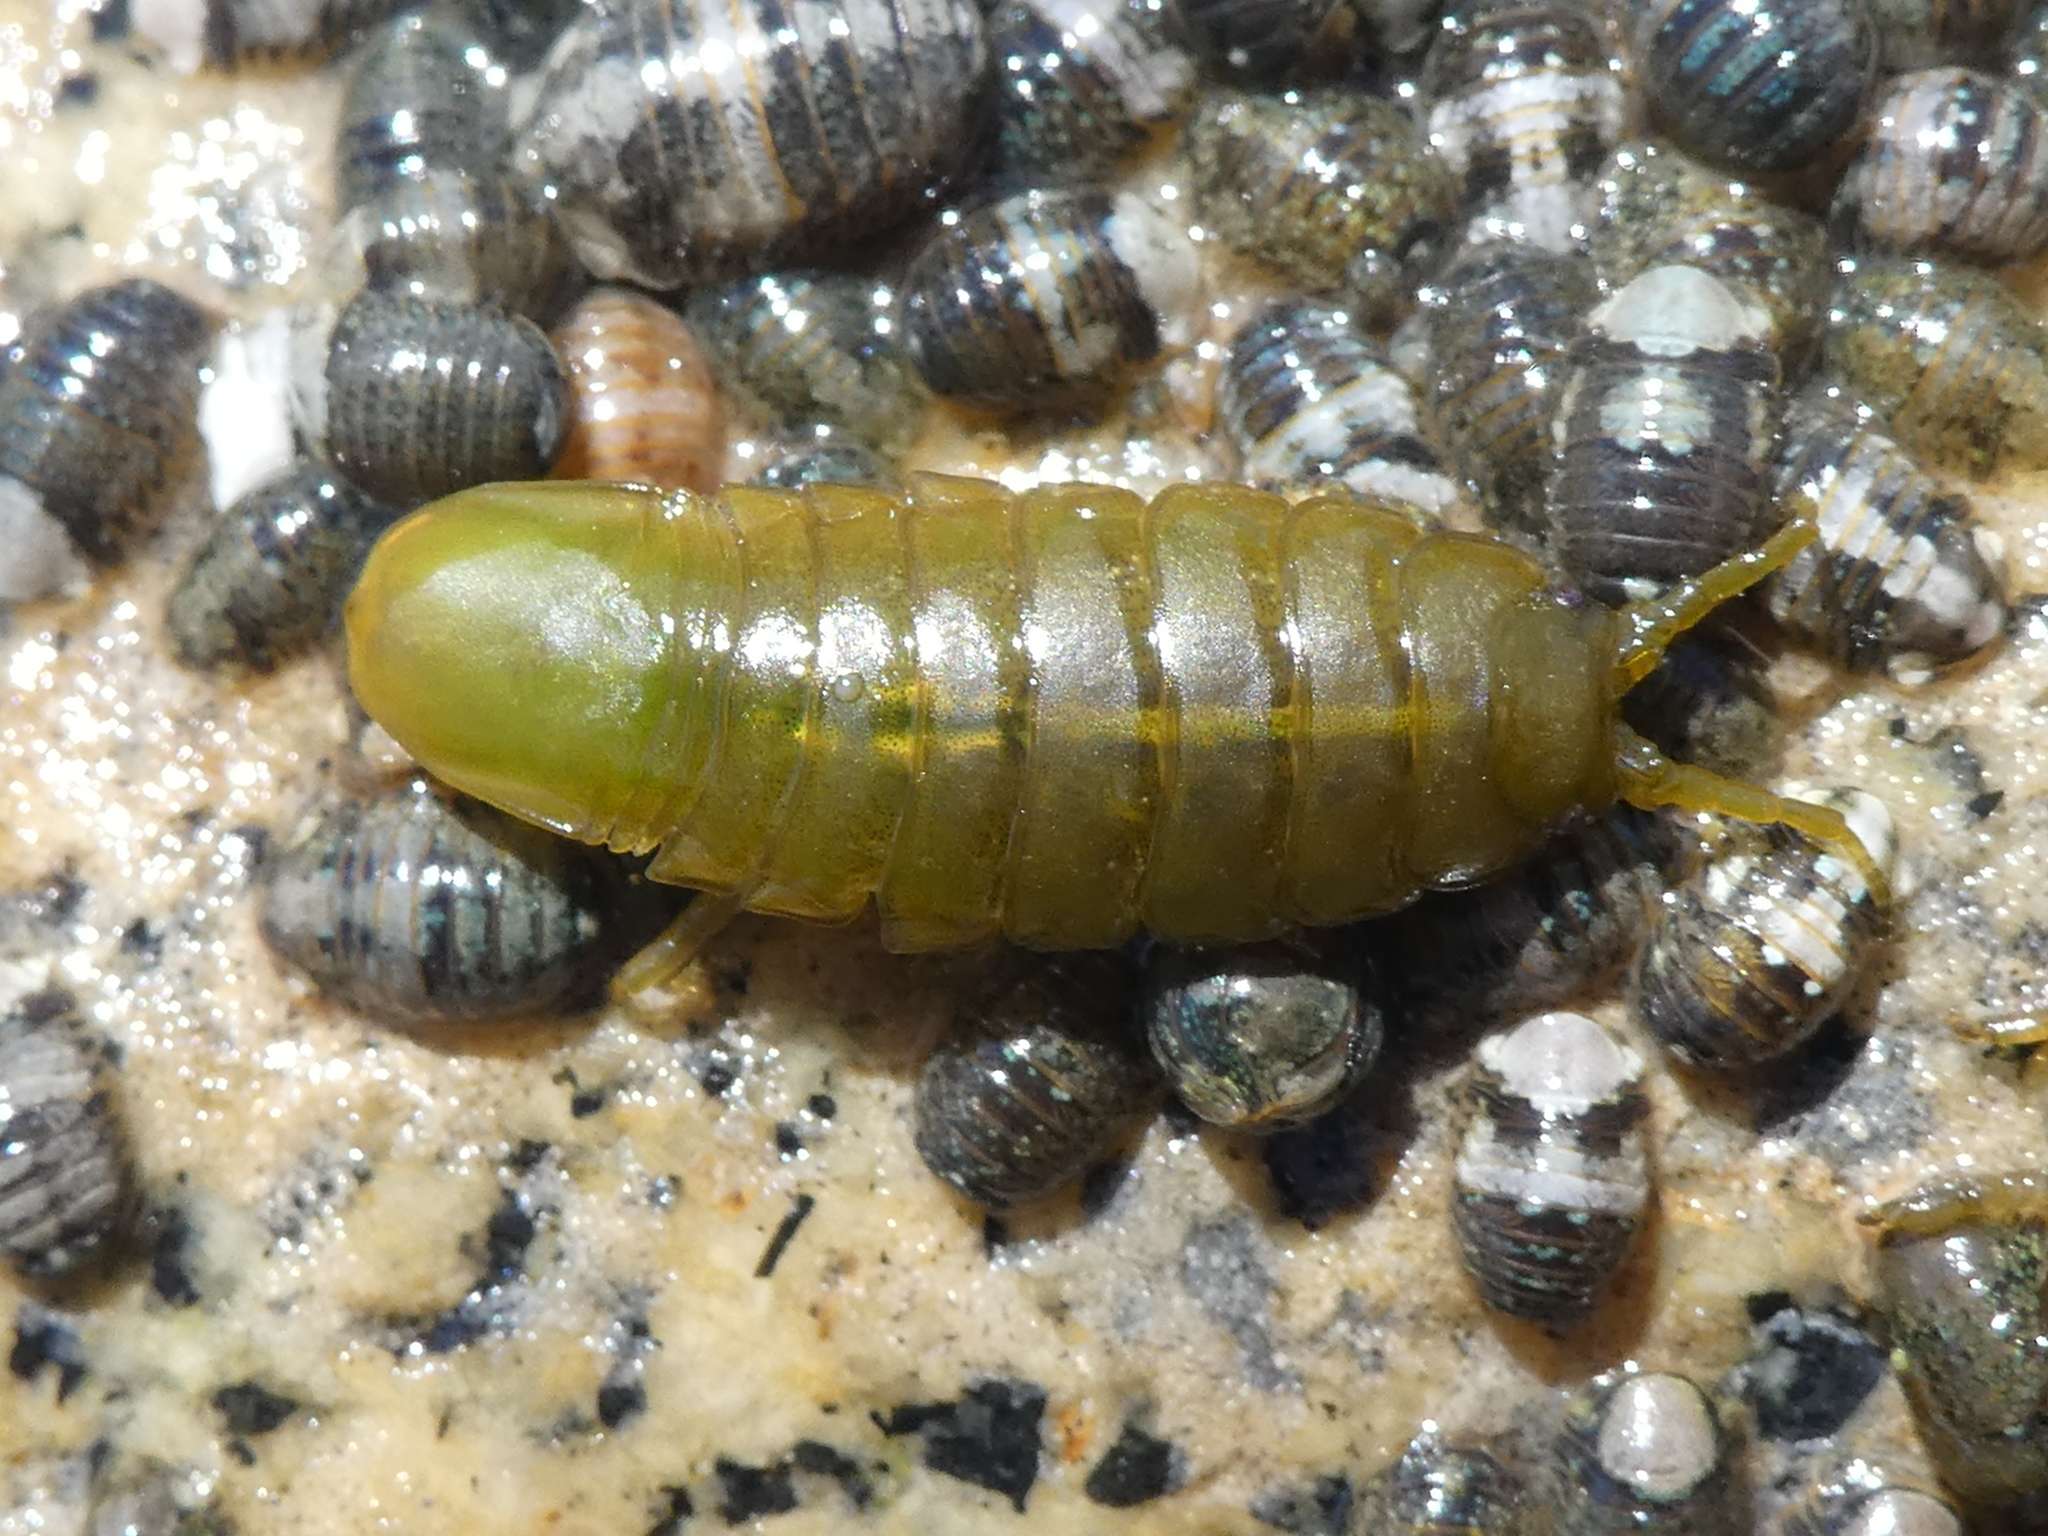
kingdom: Animalia
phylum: Arthropoda
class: Malacostraca
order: Isopoda
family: Idoteidae
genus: Pentidotea
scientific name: Pentidotea wosnesenskii
